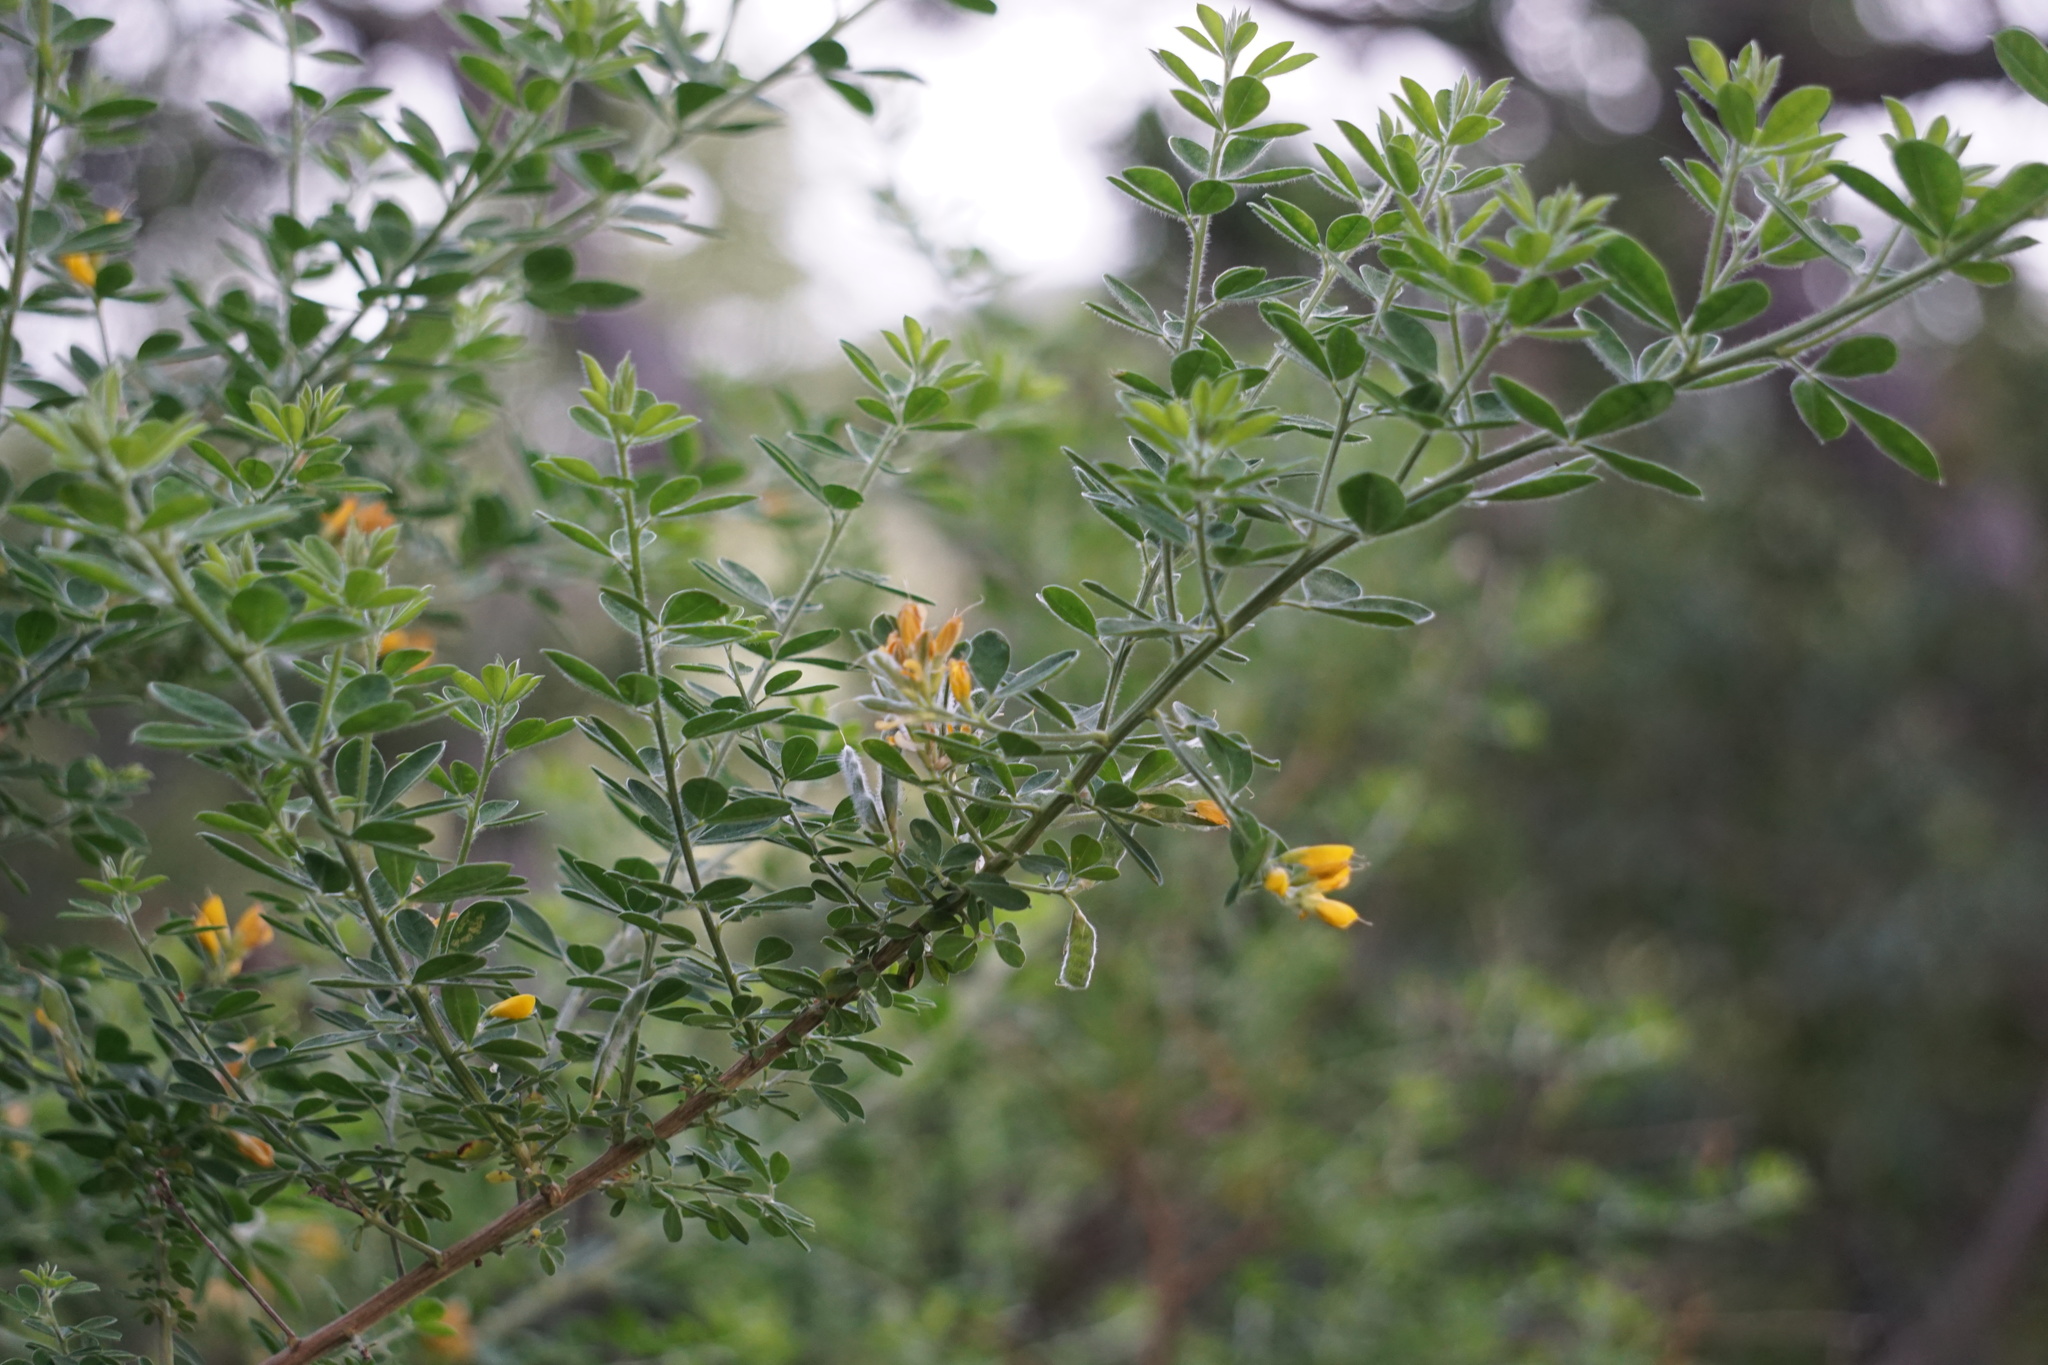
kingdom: Plantae
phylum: Tracheophyta
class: Magnoliopsida
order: Fabales
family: Fabaceae
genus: Genista
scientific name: Genista monspessulana
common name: Montpellier broom
